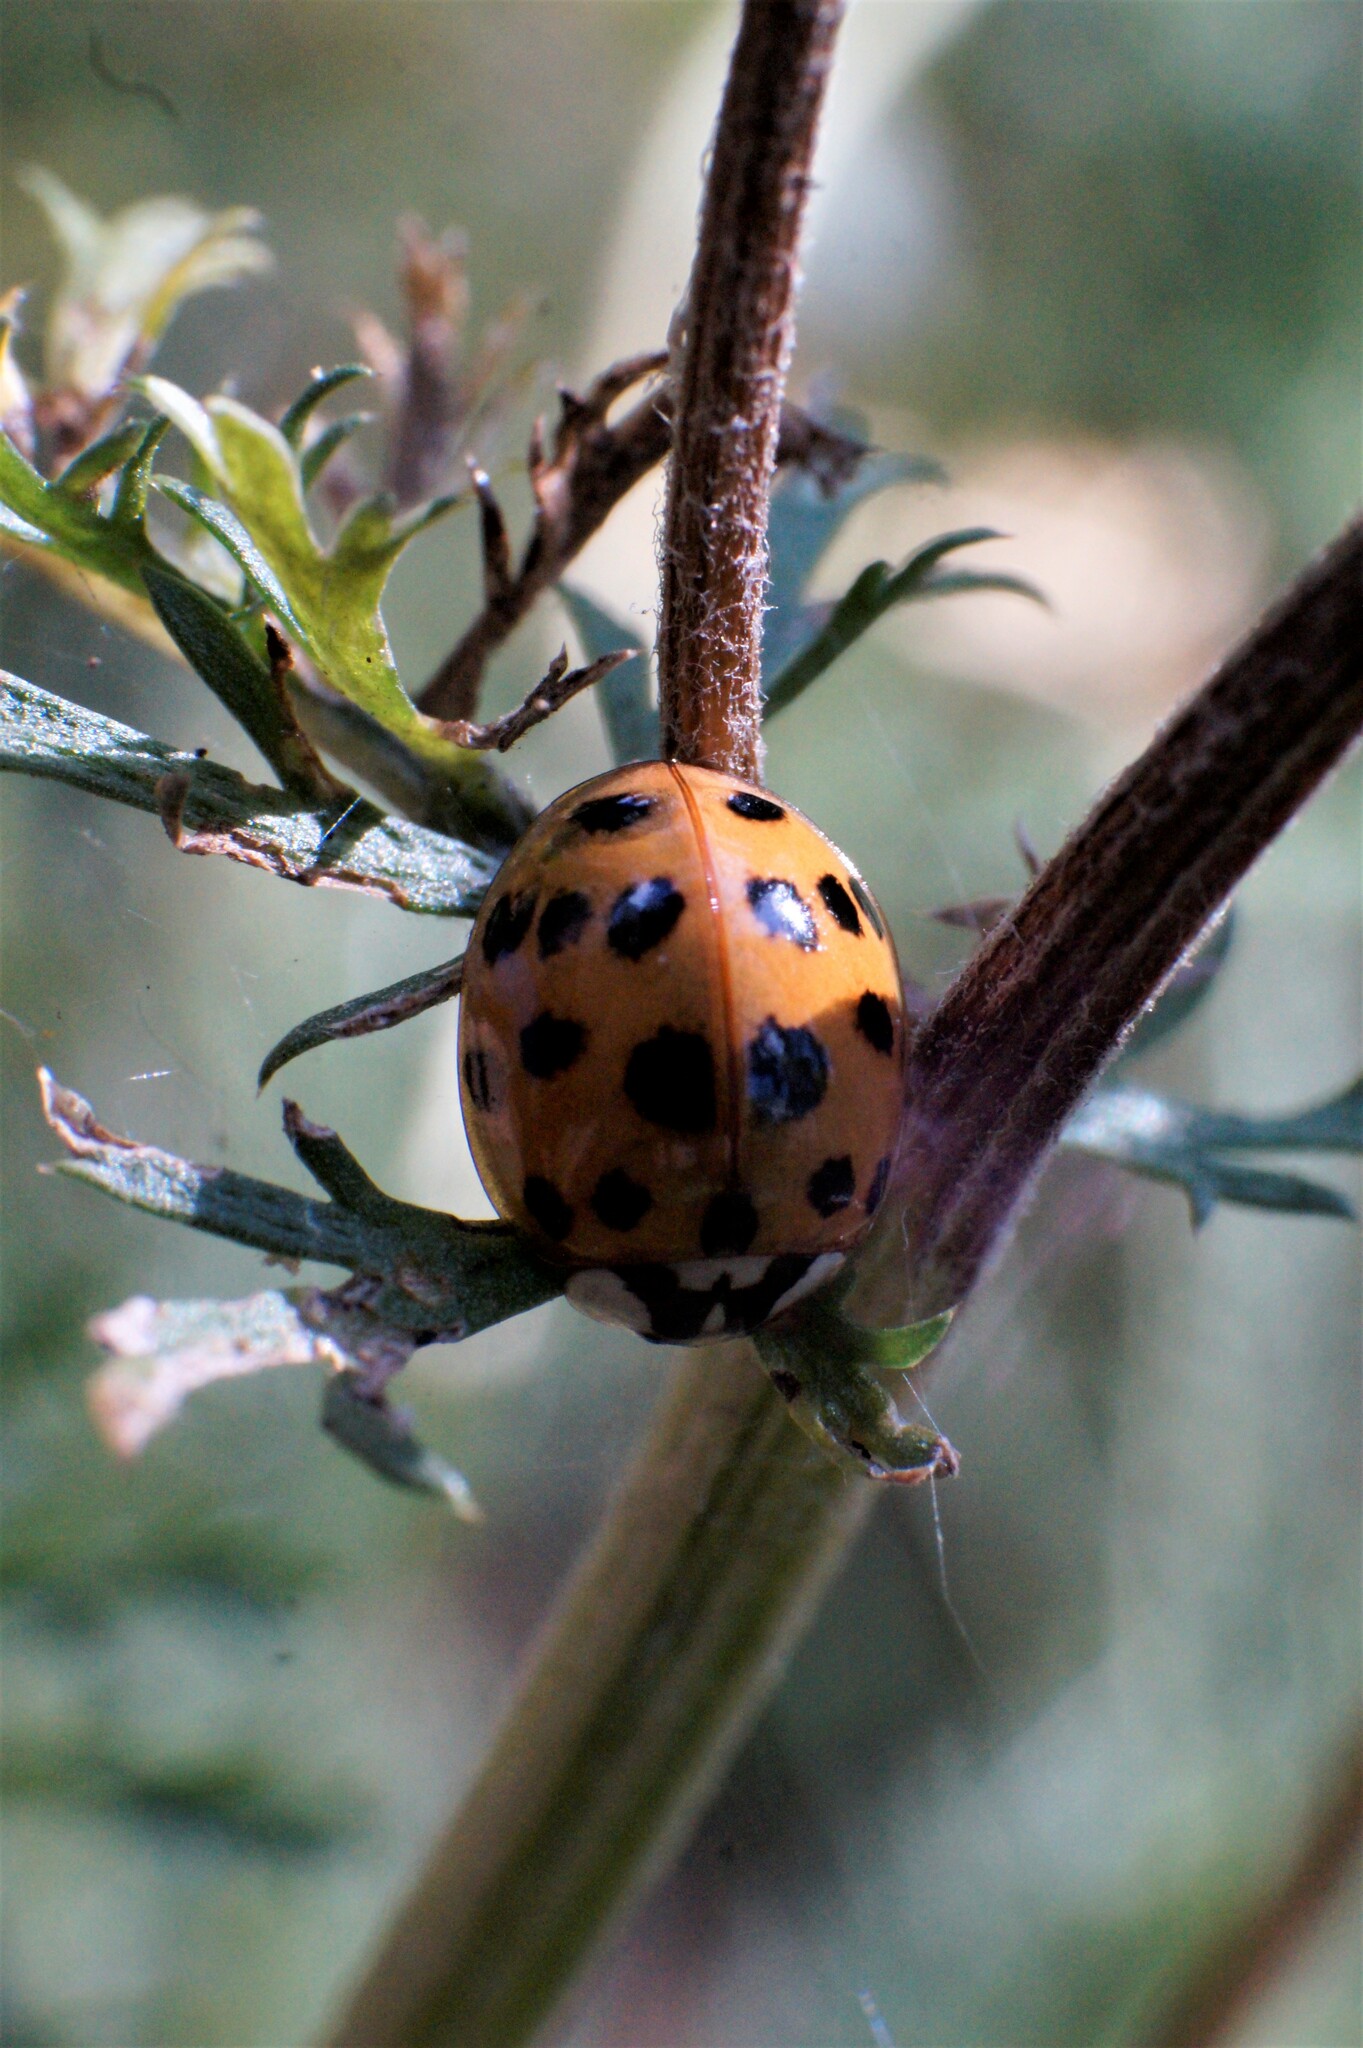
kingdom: Animalia
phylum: Arthropoda
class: Insecta
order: Coleoptera
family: Coccinellidae
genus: Harmonia
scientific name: Harmonia axyridis
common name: Harlequin ladybird
